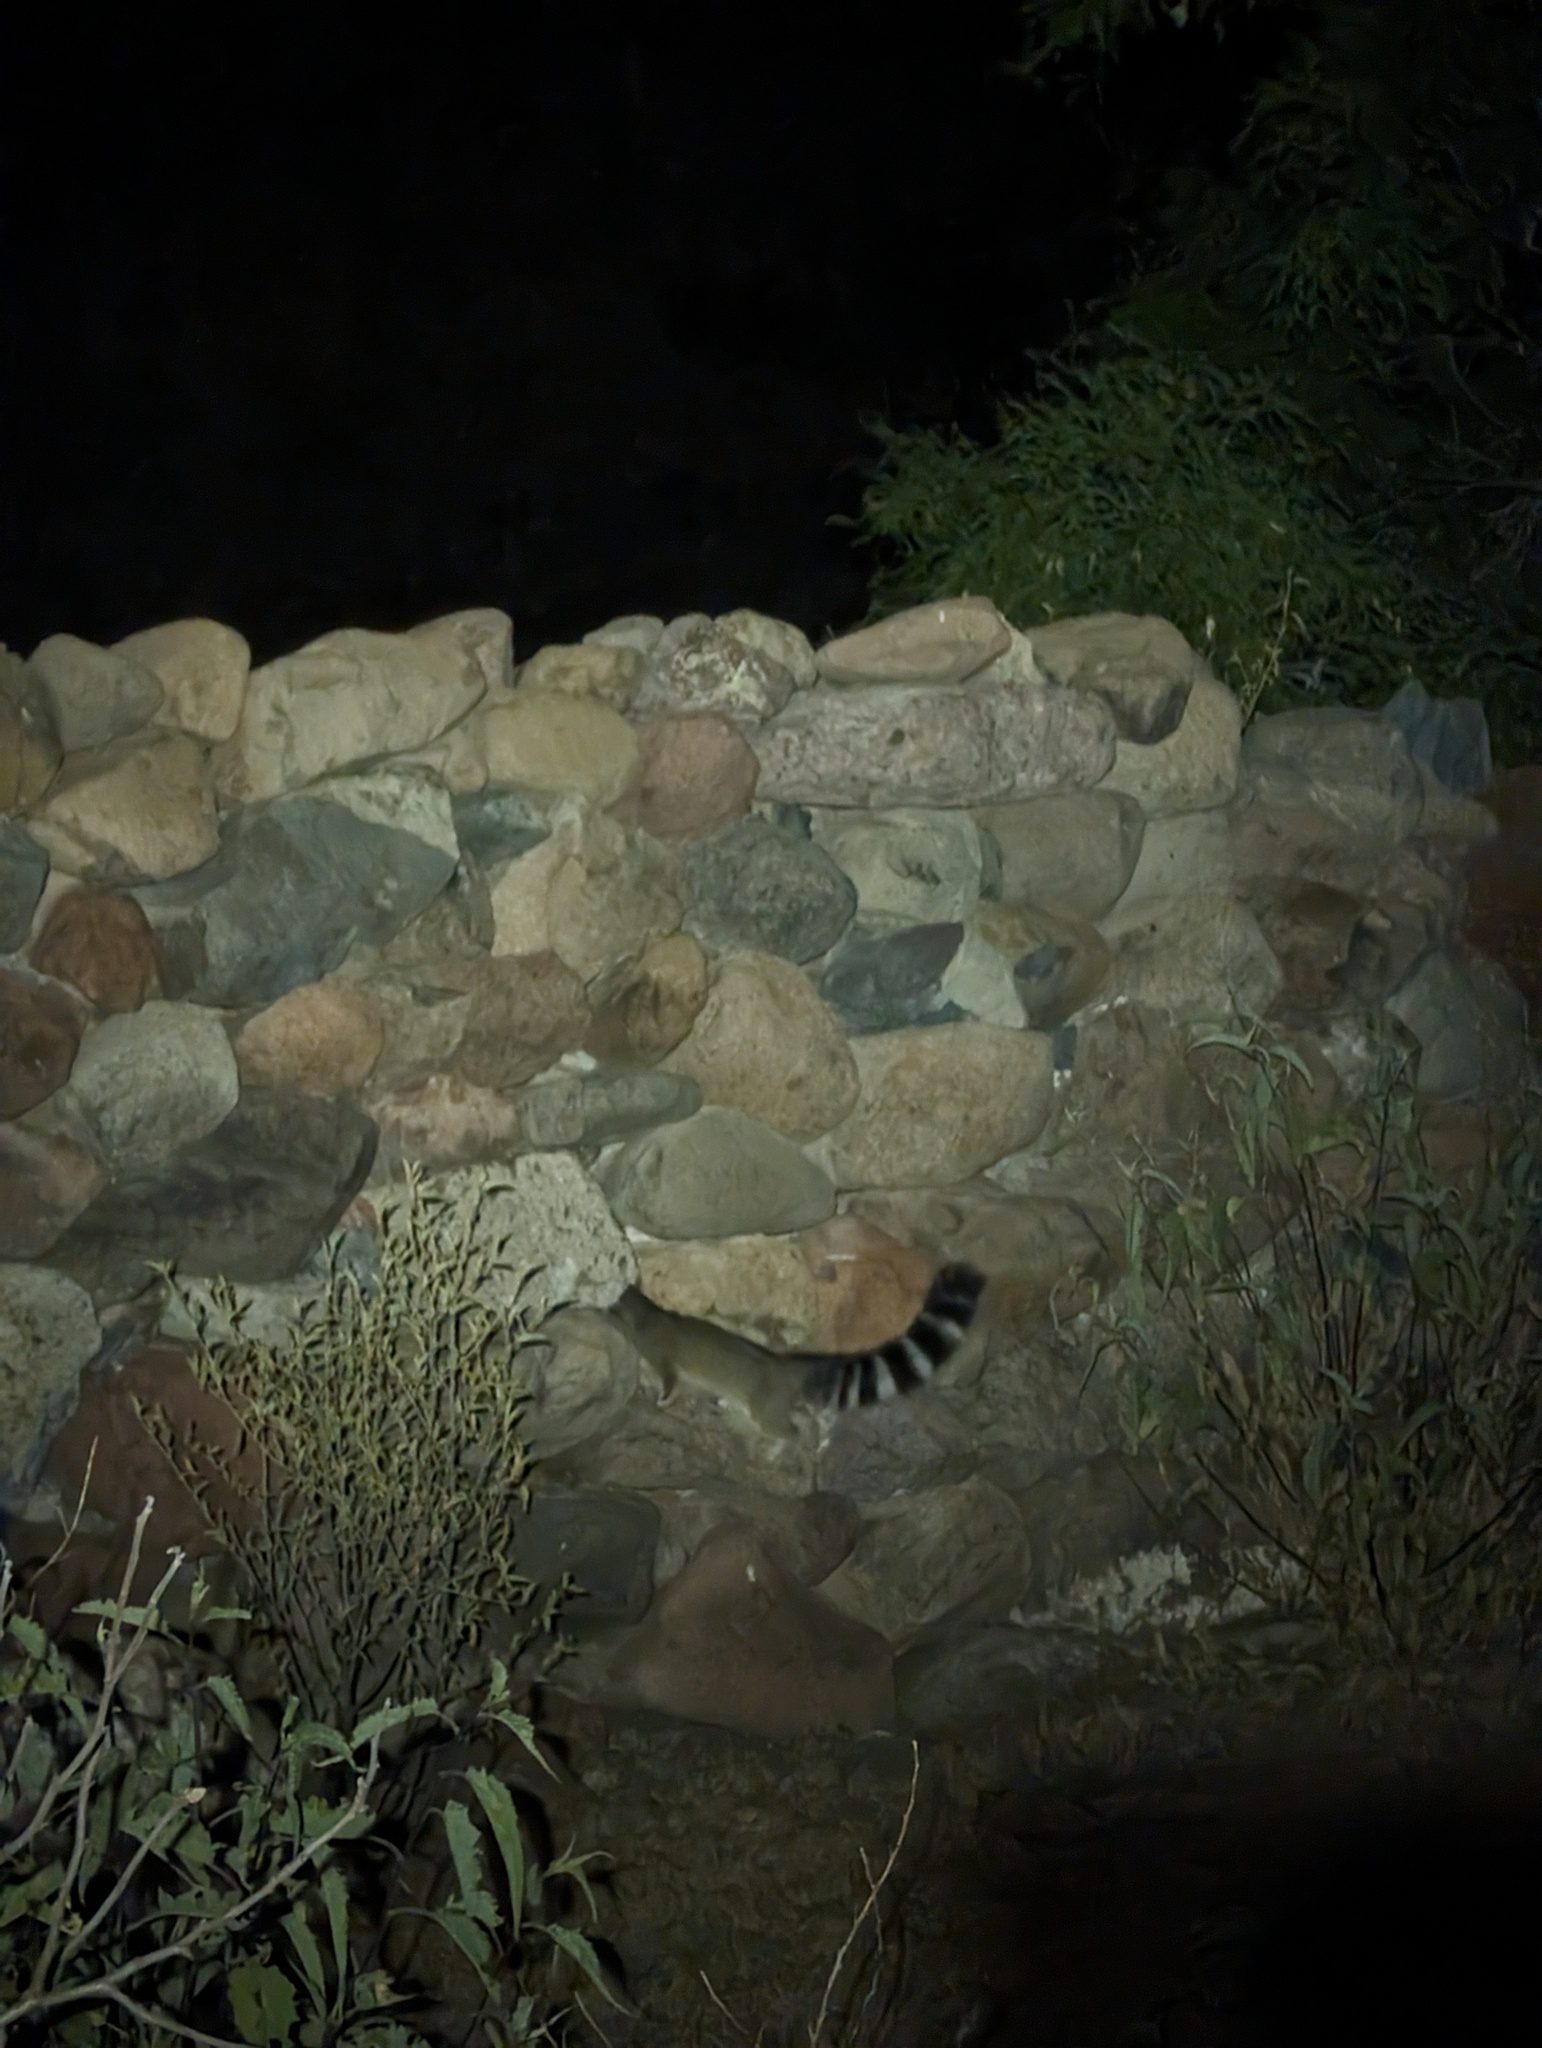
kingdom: Animalia
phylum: Chordata
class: Mammalia
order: Carnivora
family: Procyonidae
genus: Bassariscus
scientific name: Bassariscus astutus
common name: Ringtail
